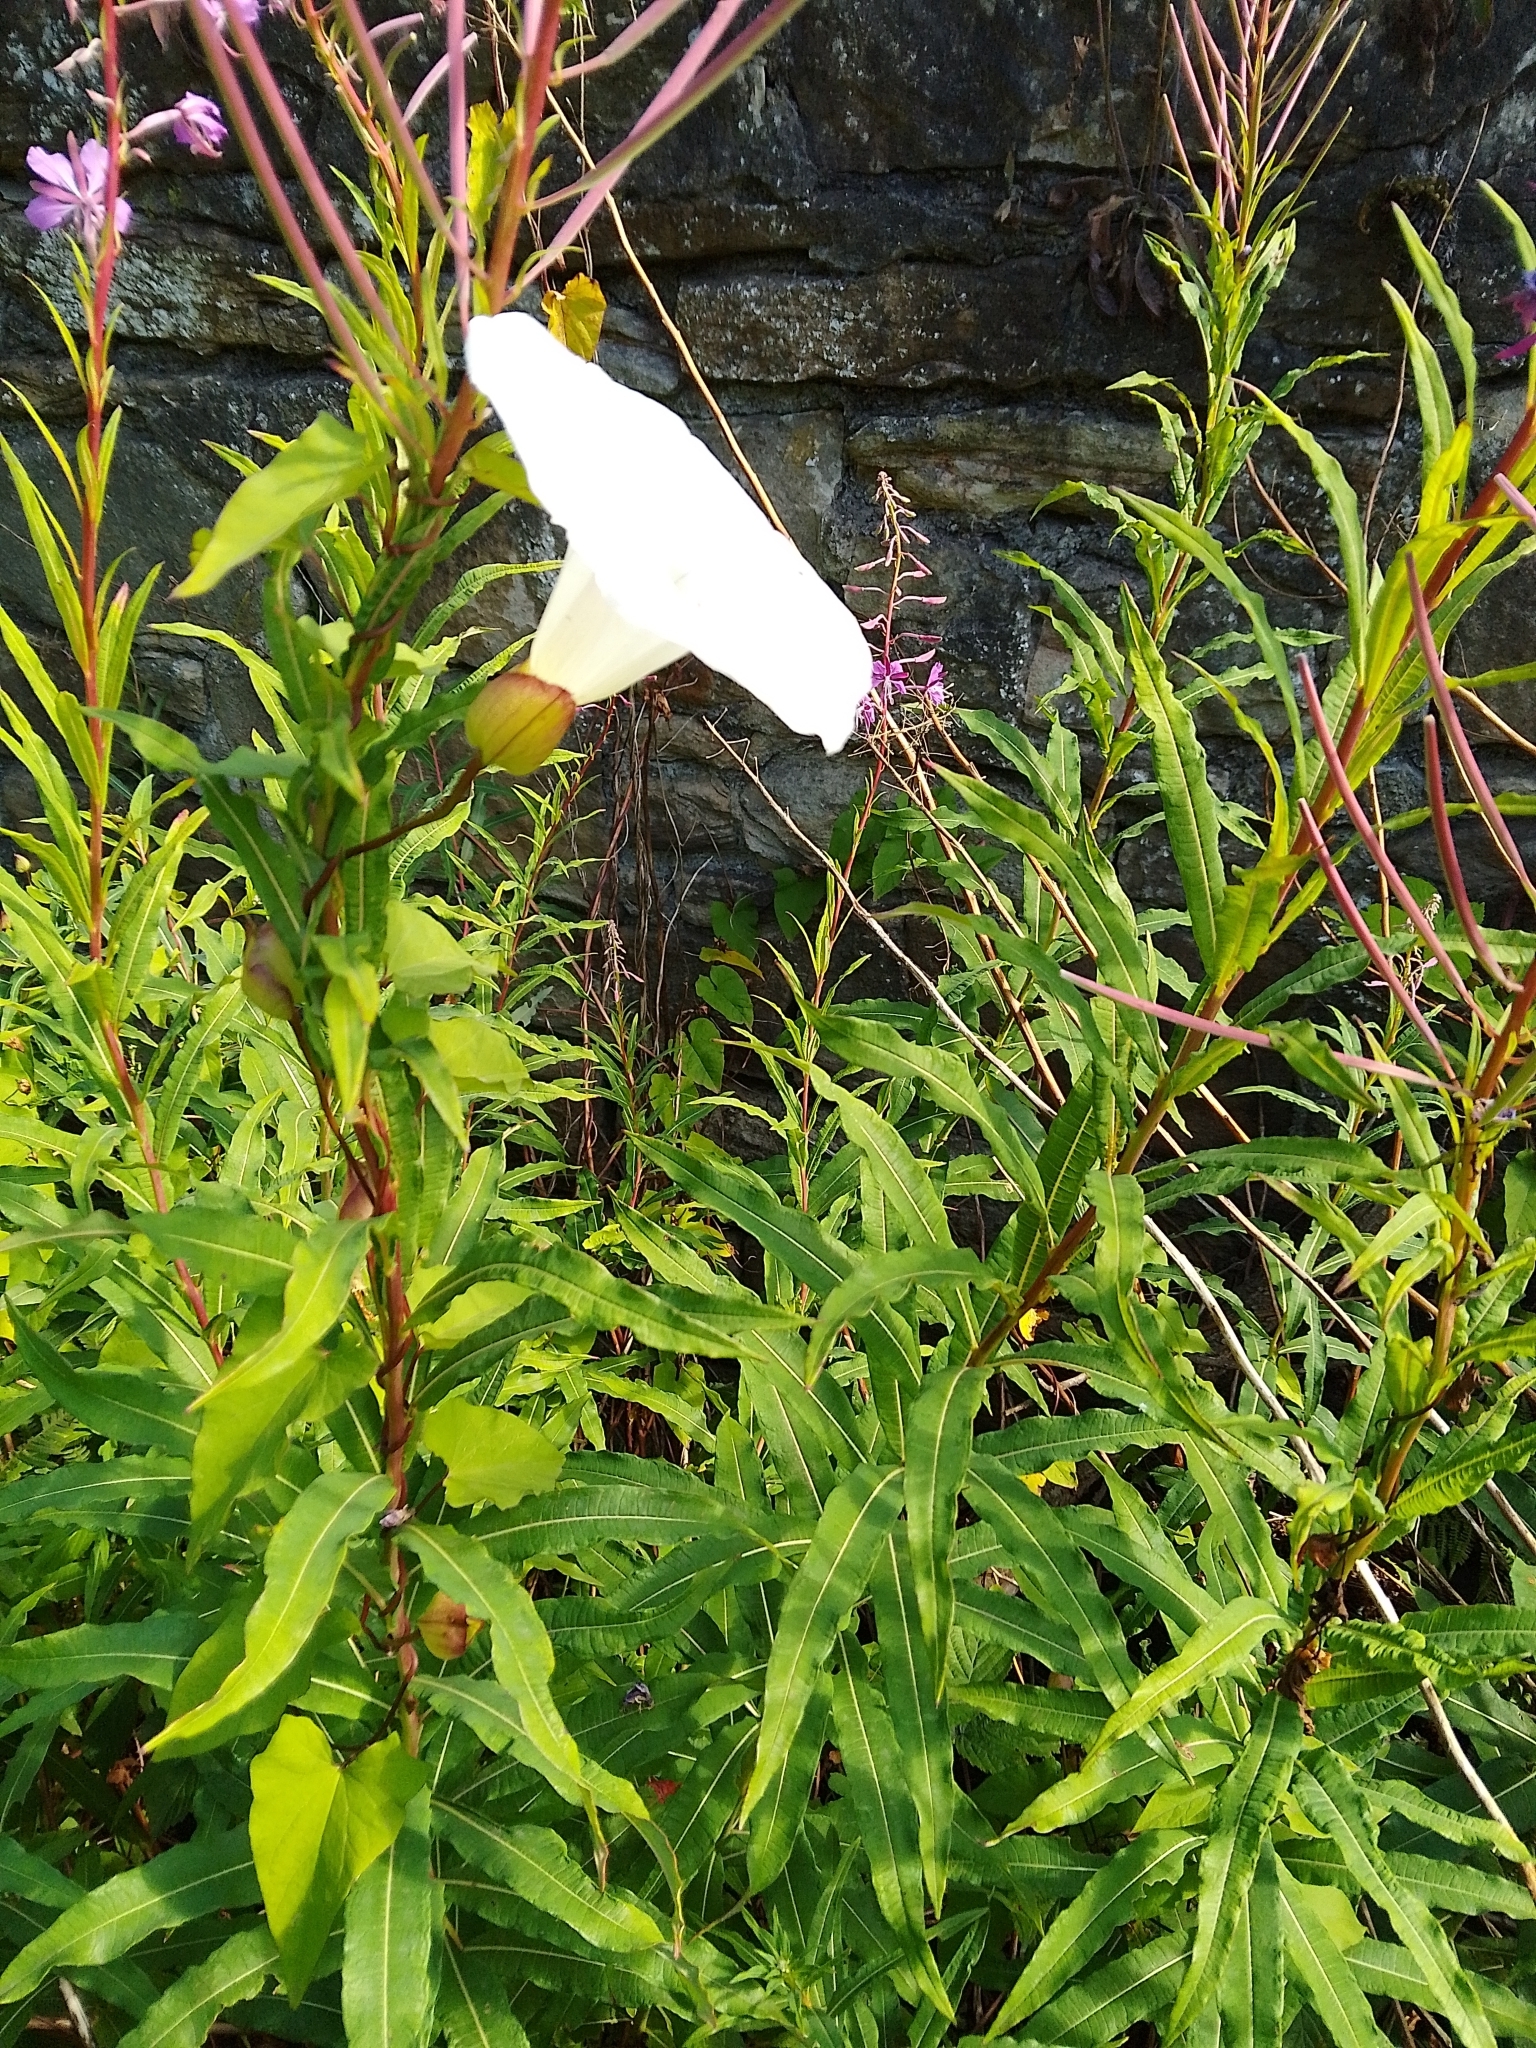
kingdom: Plantae
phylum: Tracheophyta
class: Magnoliopsida
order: Solanales
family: Convolvulaceae
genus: Calystegia
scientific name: Calystegia silvatica
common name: Large bindweed
